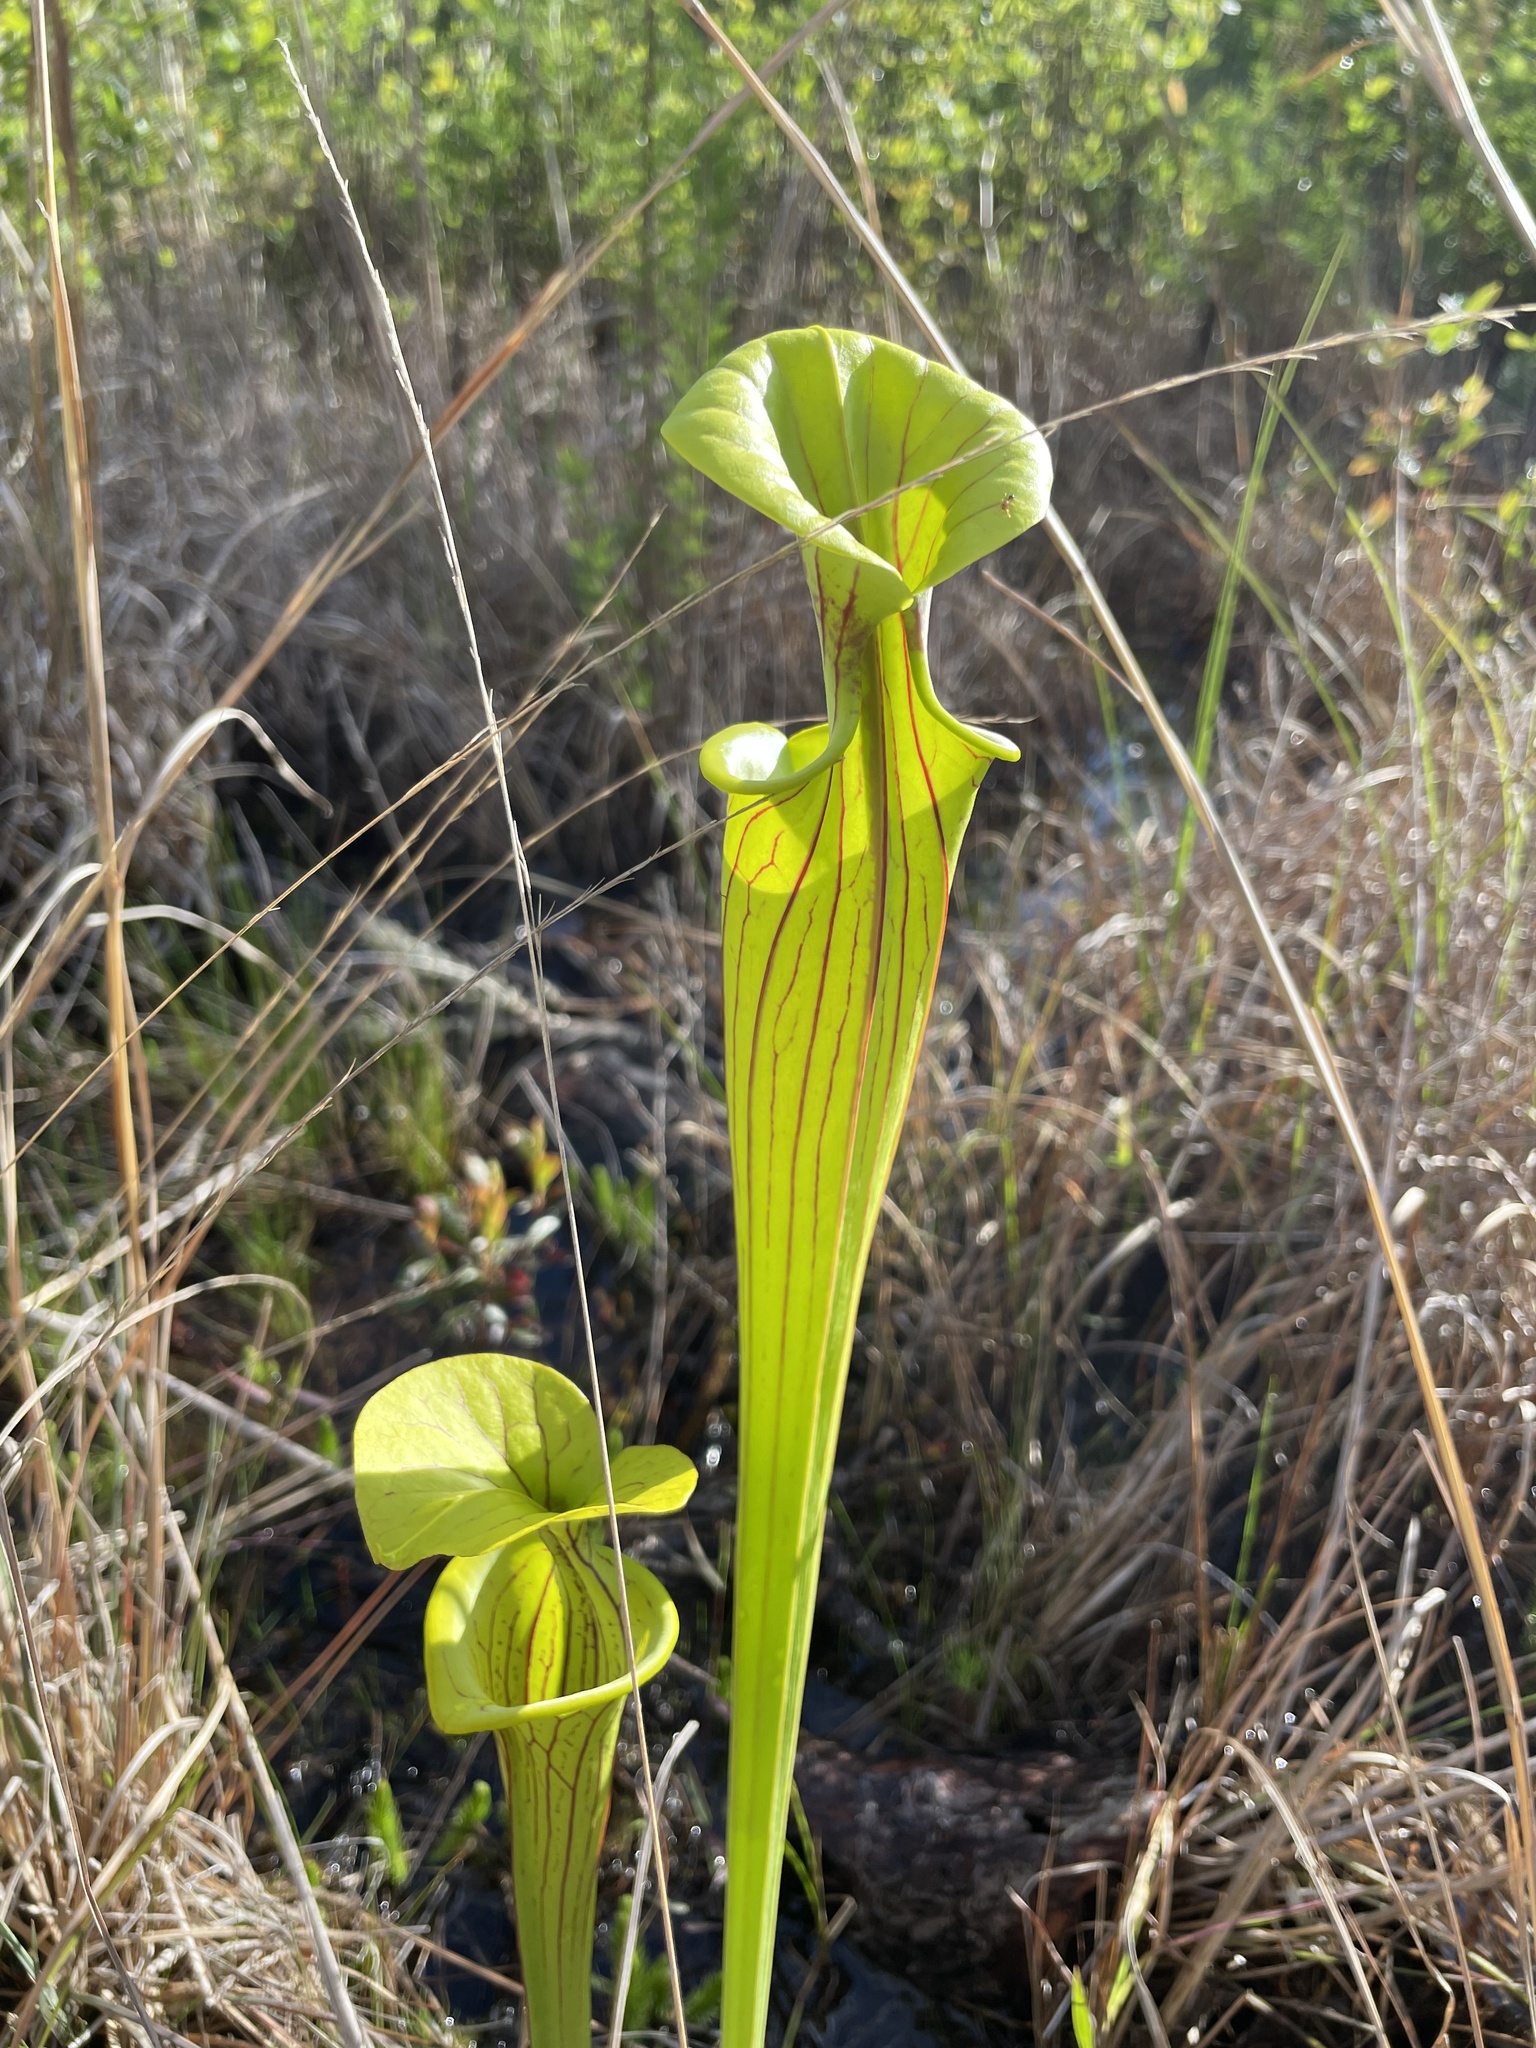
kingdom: Plantae
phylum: Tracheophyta
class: Magnoliopsida
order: Ericales
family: Sarraceniaceae
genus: Sarracenia
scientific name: Sarracenia flava
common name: Trumpets
